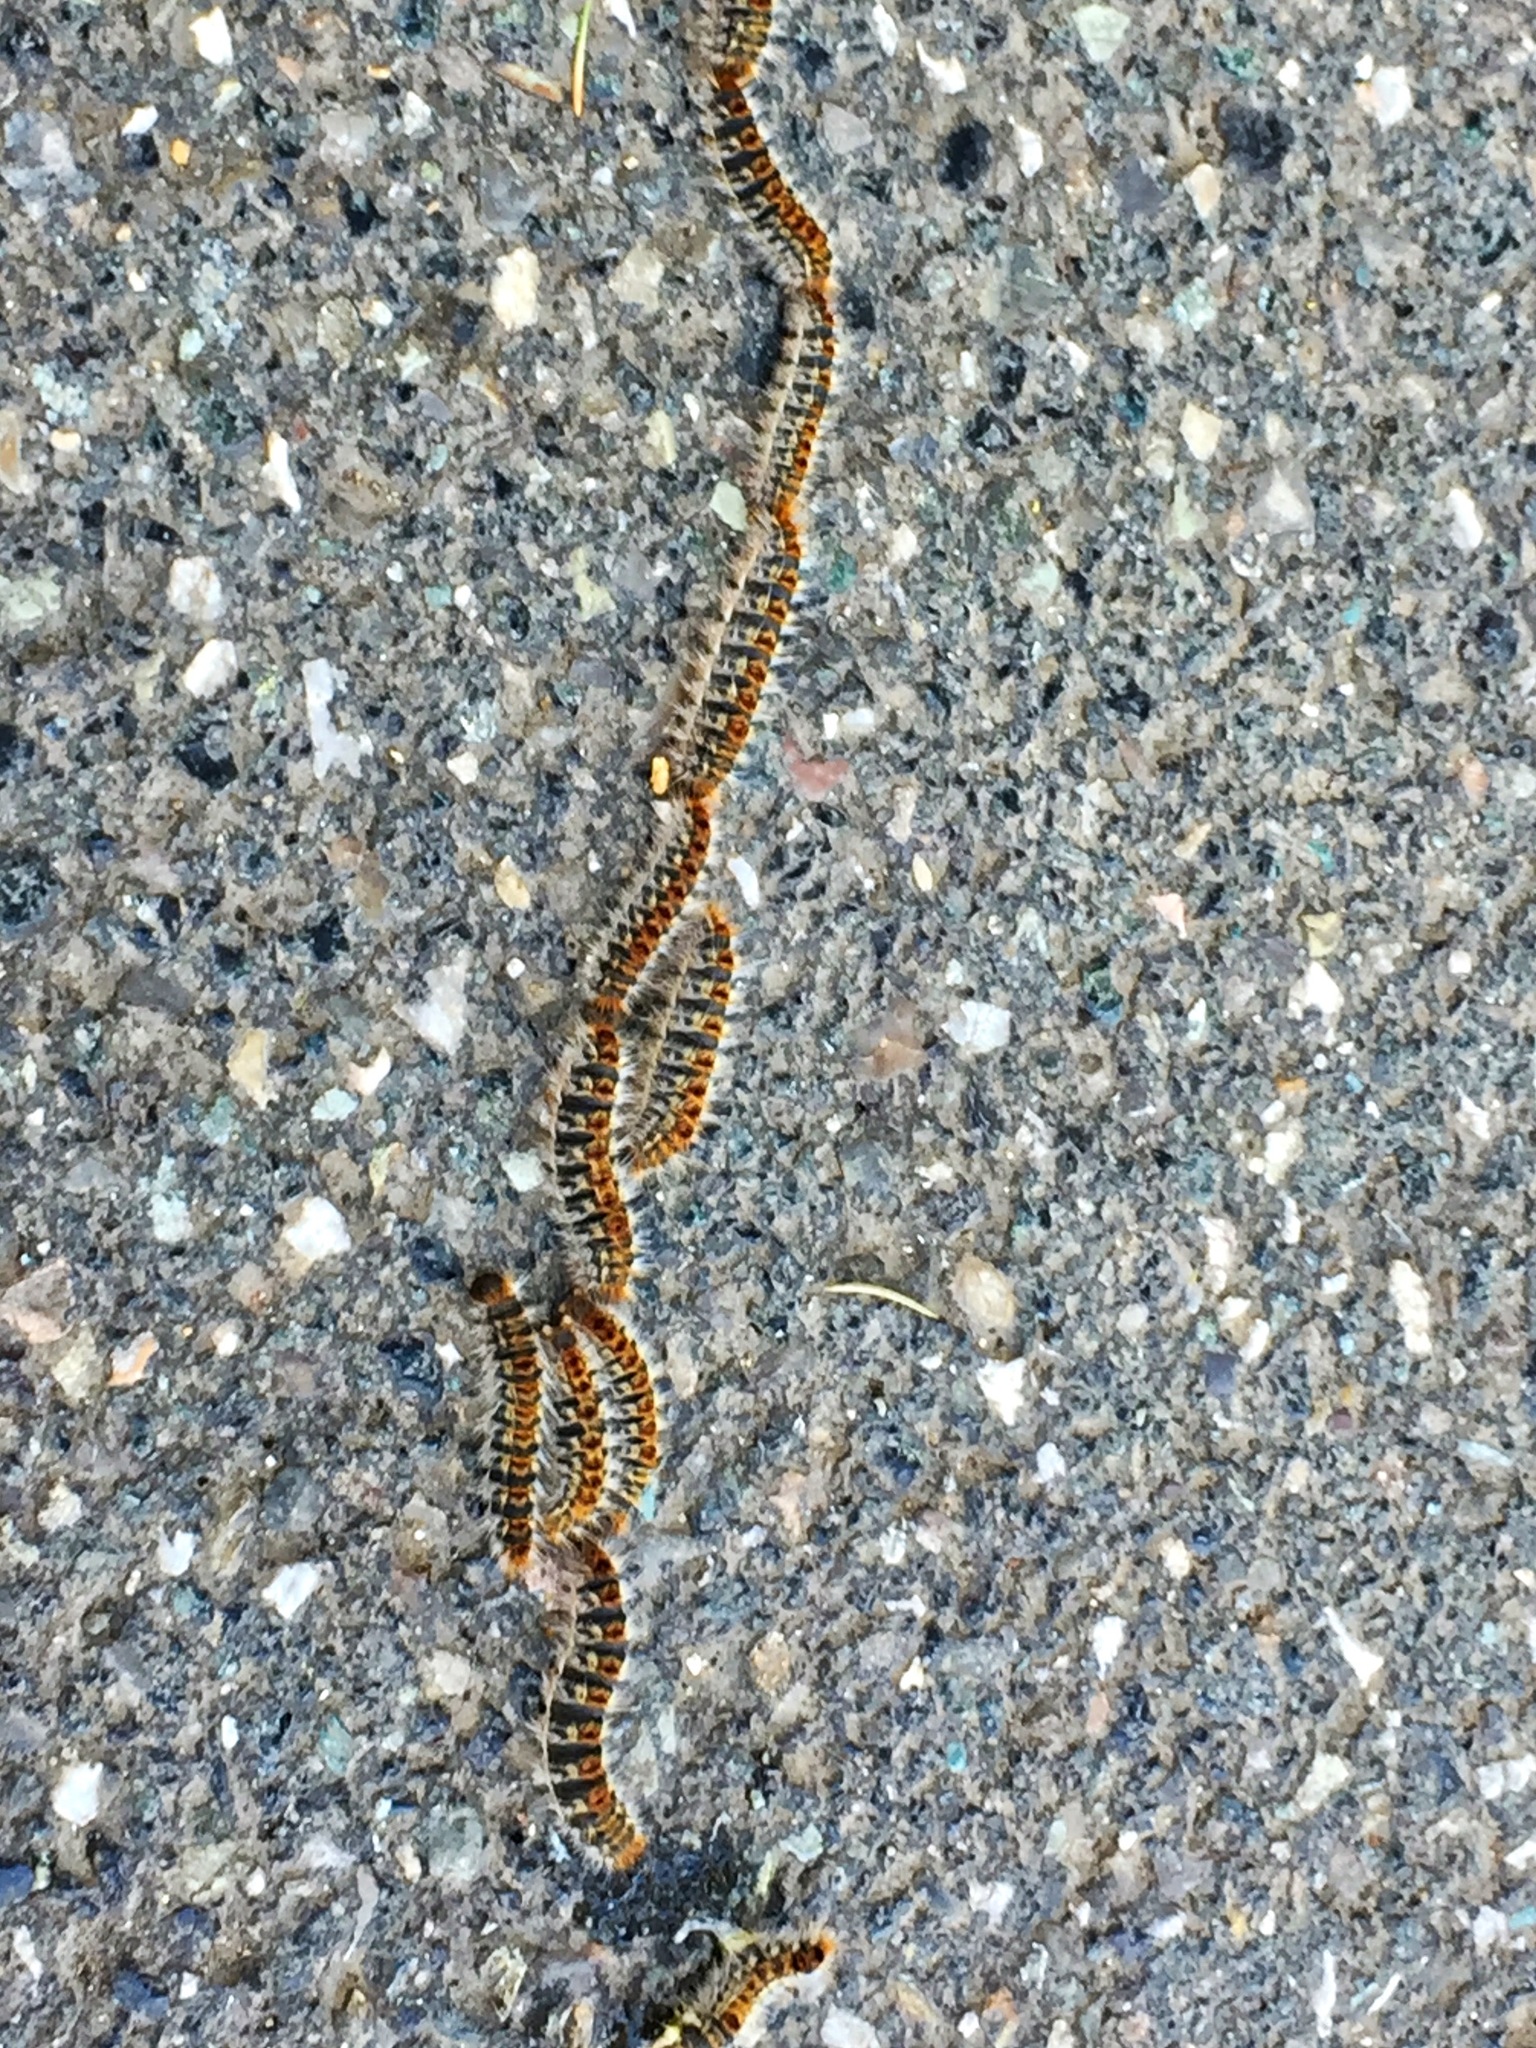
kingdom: Animalia
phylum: Arthropoda
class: Insecta
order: Lepidoptera
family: Notodontidae
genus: Thaumetopoea
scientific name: Thaumetopoea pityocampa
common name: Pine processionary
